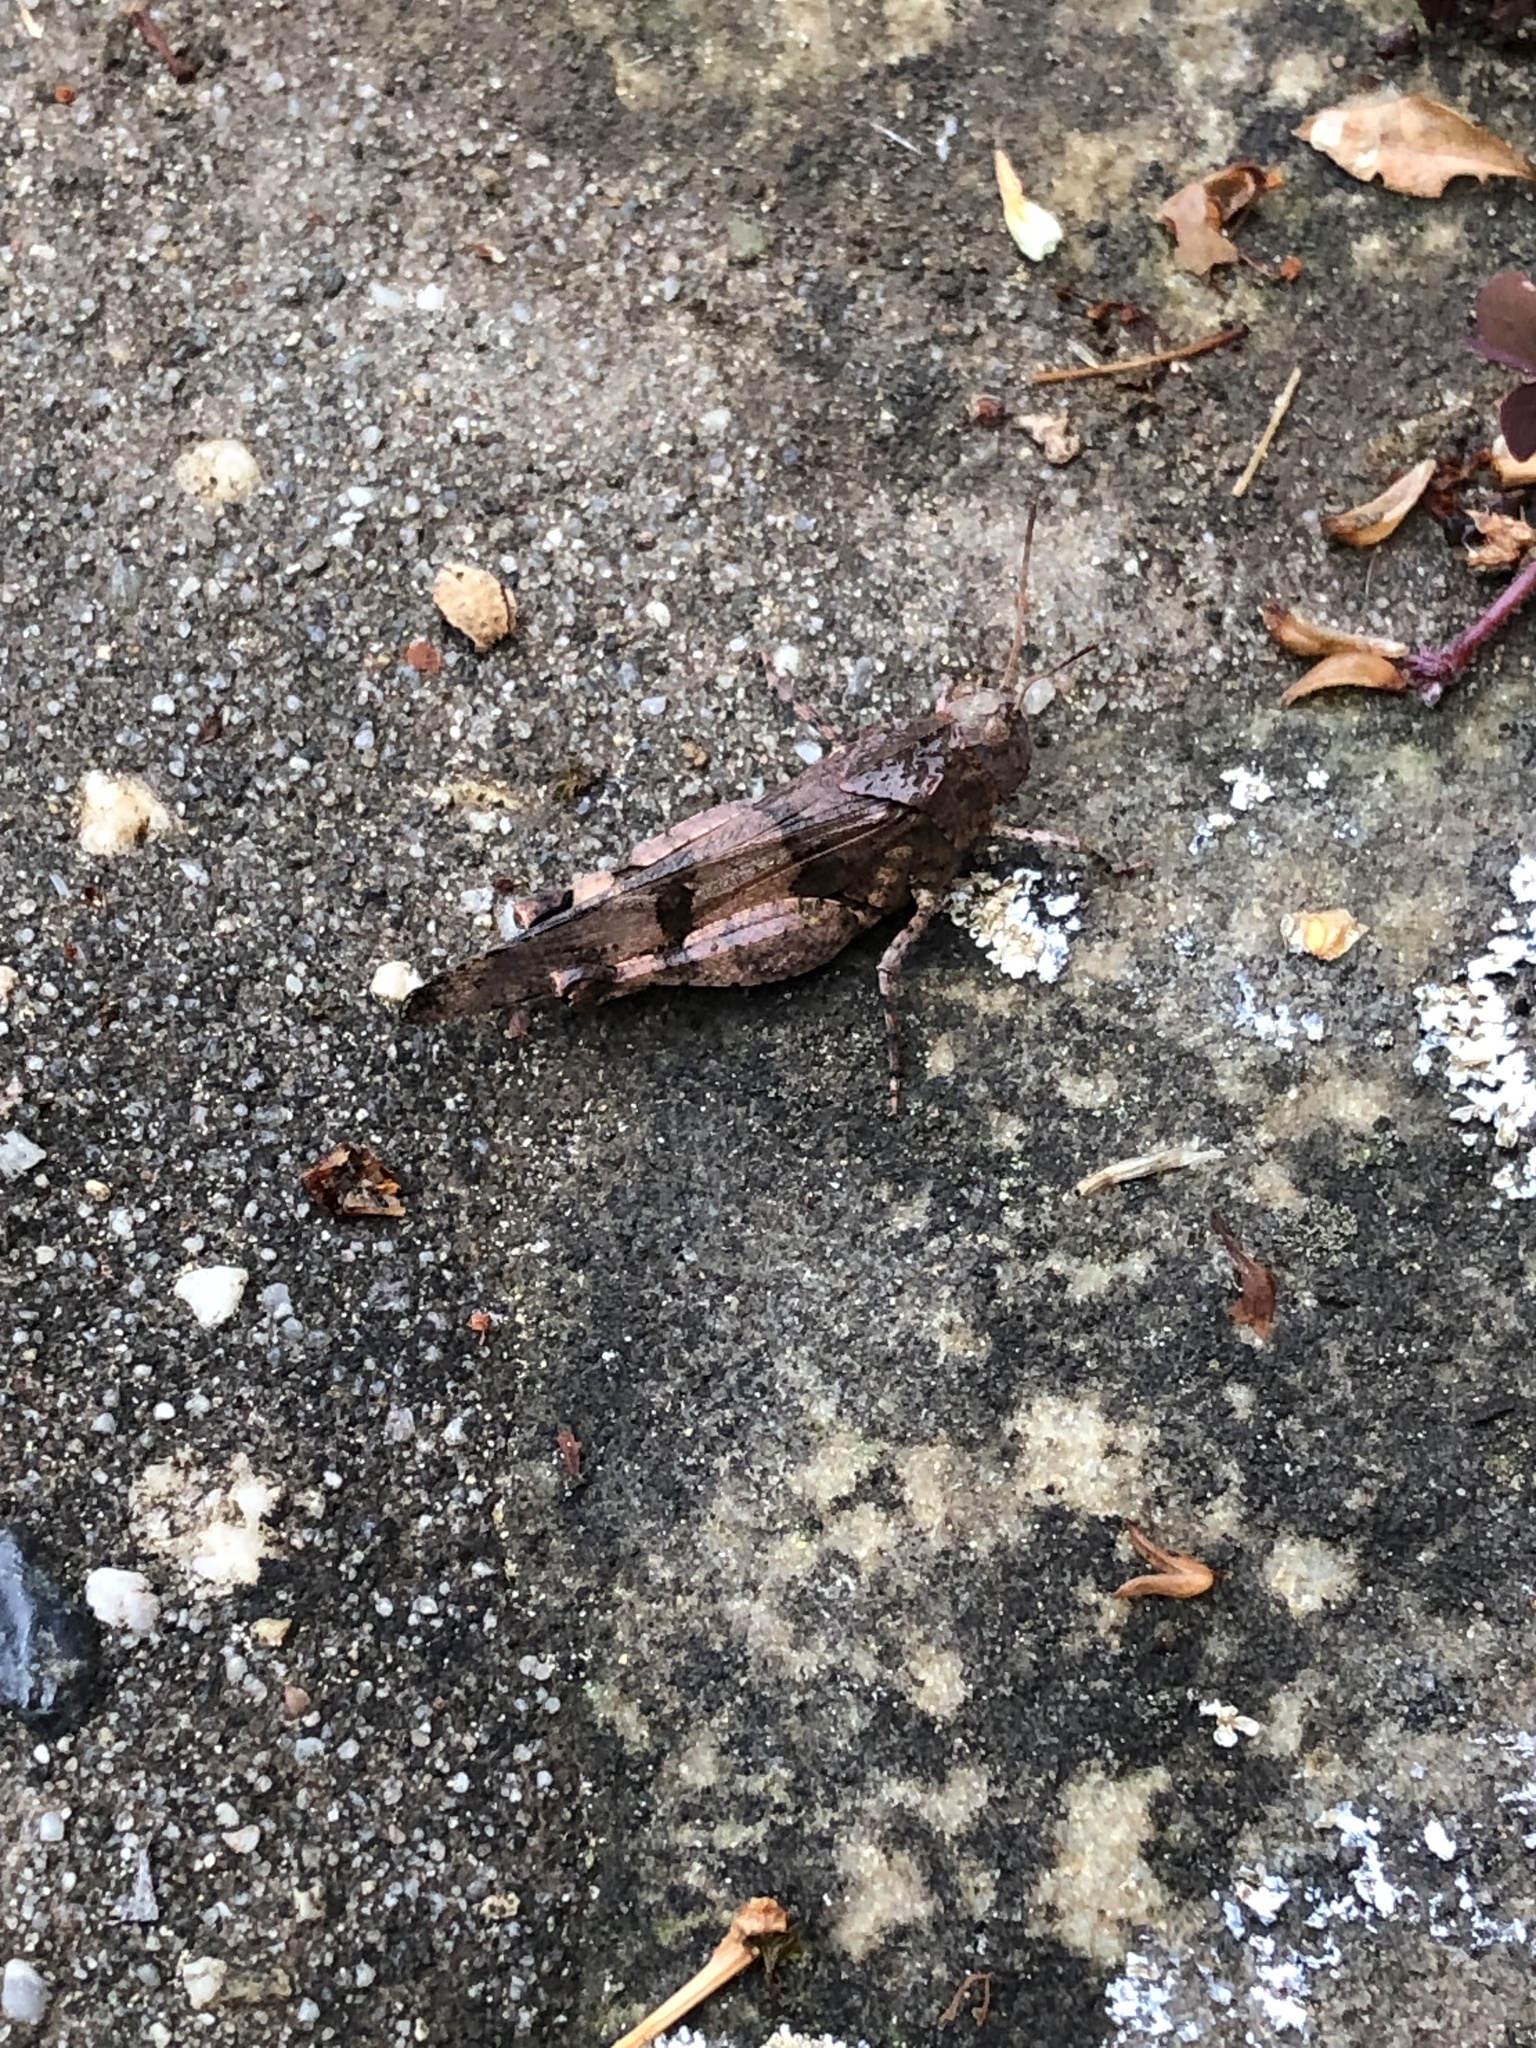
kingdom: Animalia
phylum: Arthropoda
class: Insecta
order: Orthoptera
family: Acrididae
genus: Oedipoda
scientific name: Oedipoda caerulescens
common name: Blue-winged grasshopper
